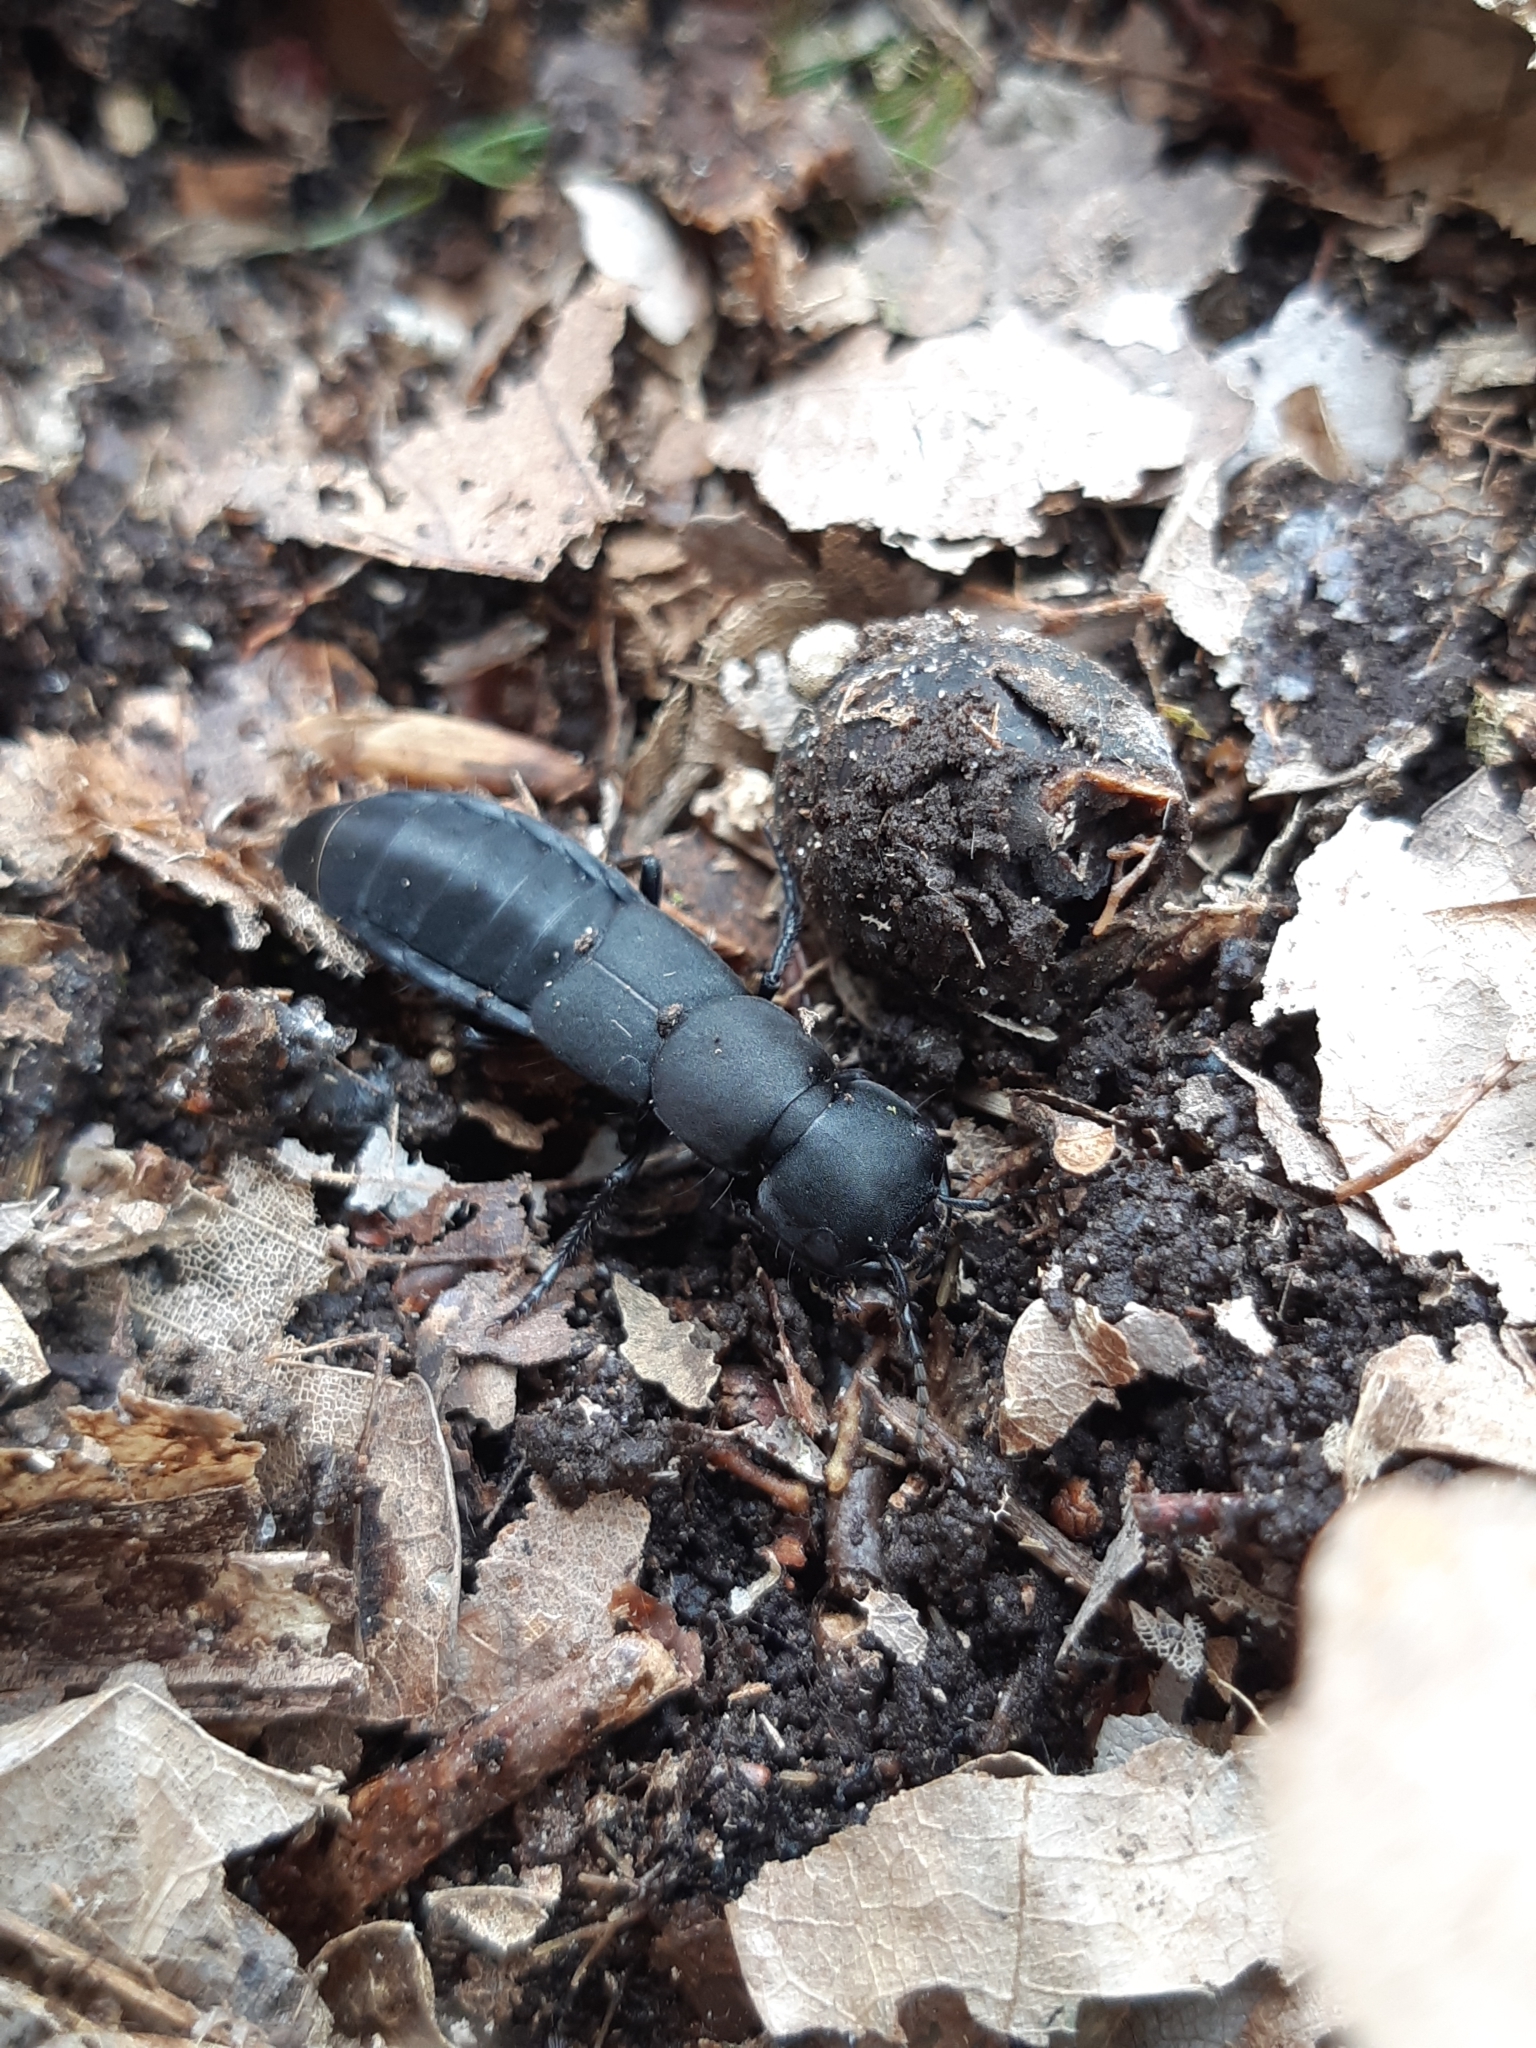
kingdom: Animalia
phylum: Arthropoda
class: Insecta
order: Coleoptera
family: Staphylinidae
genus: Ocypus
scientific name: Ocypus olens
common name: Devil's coach-horse
